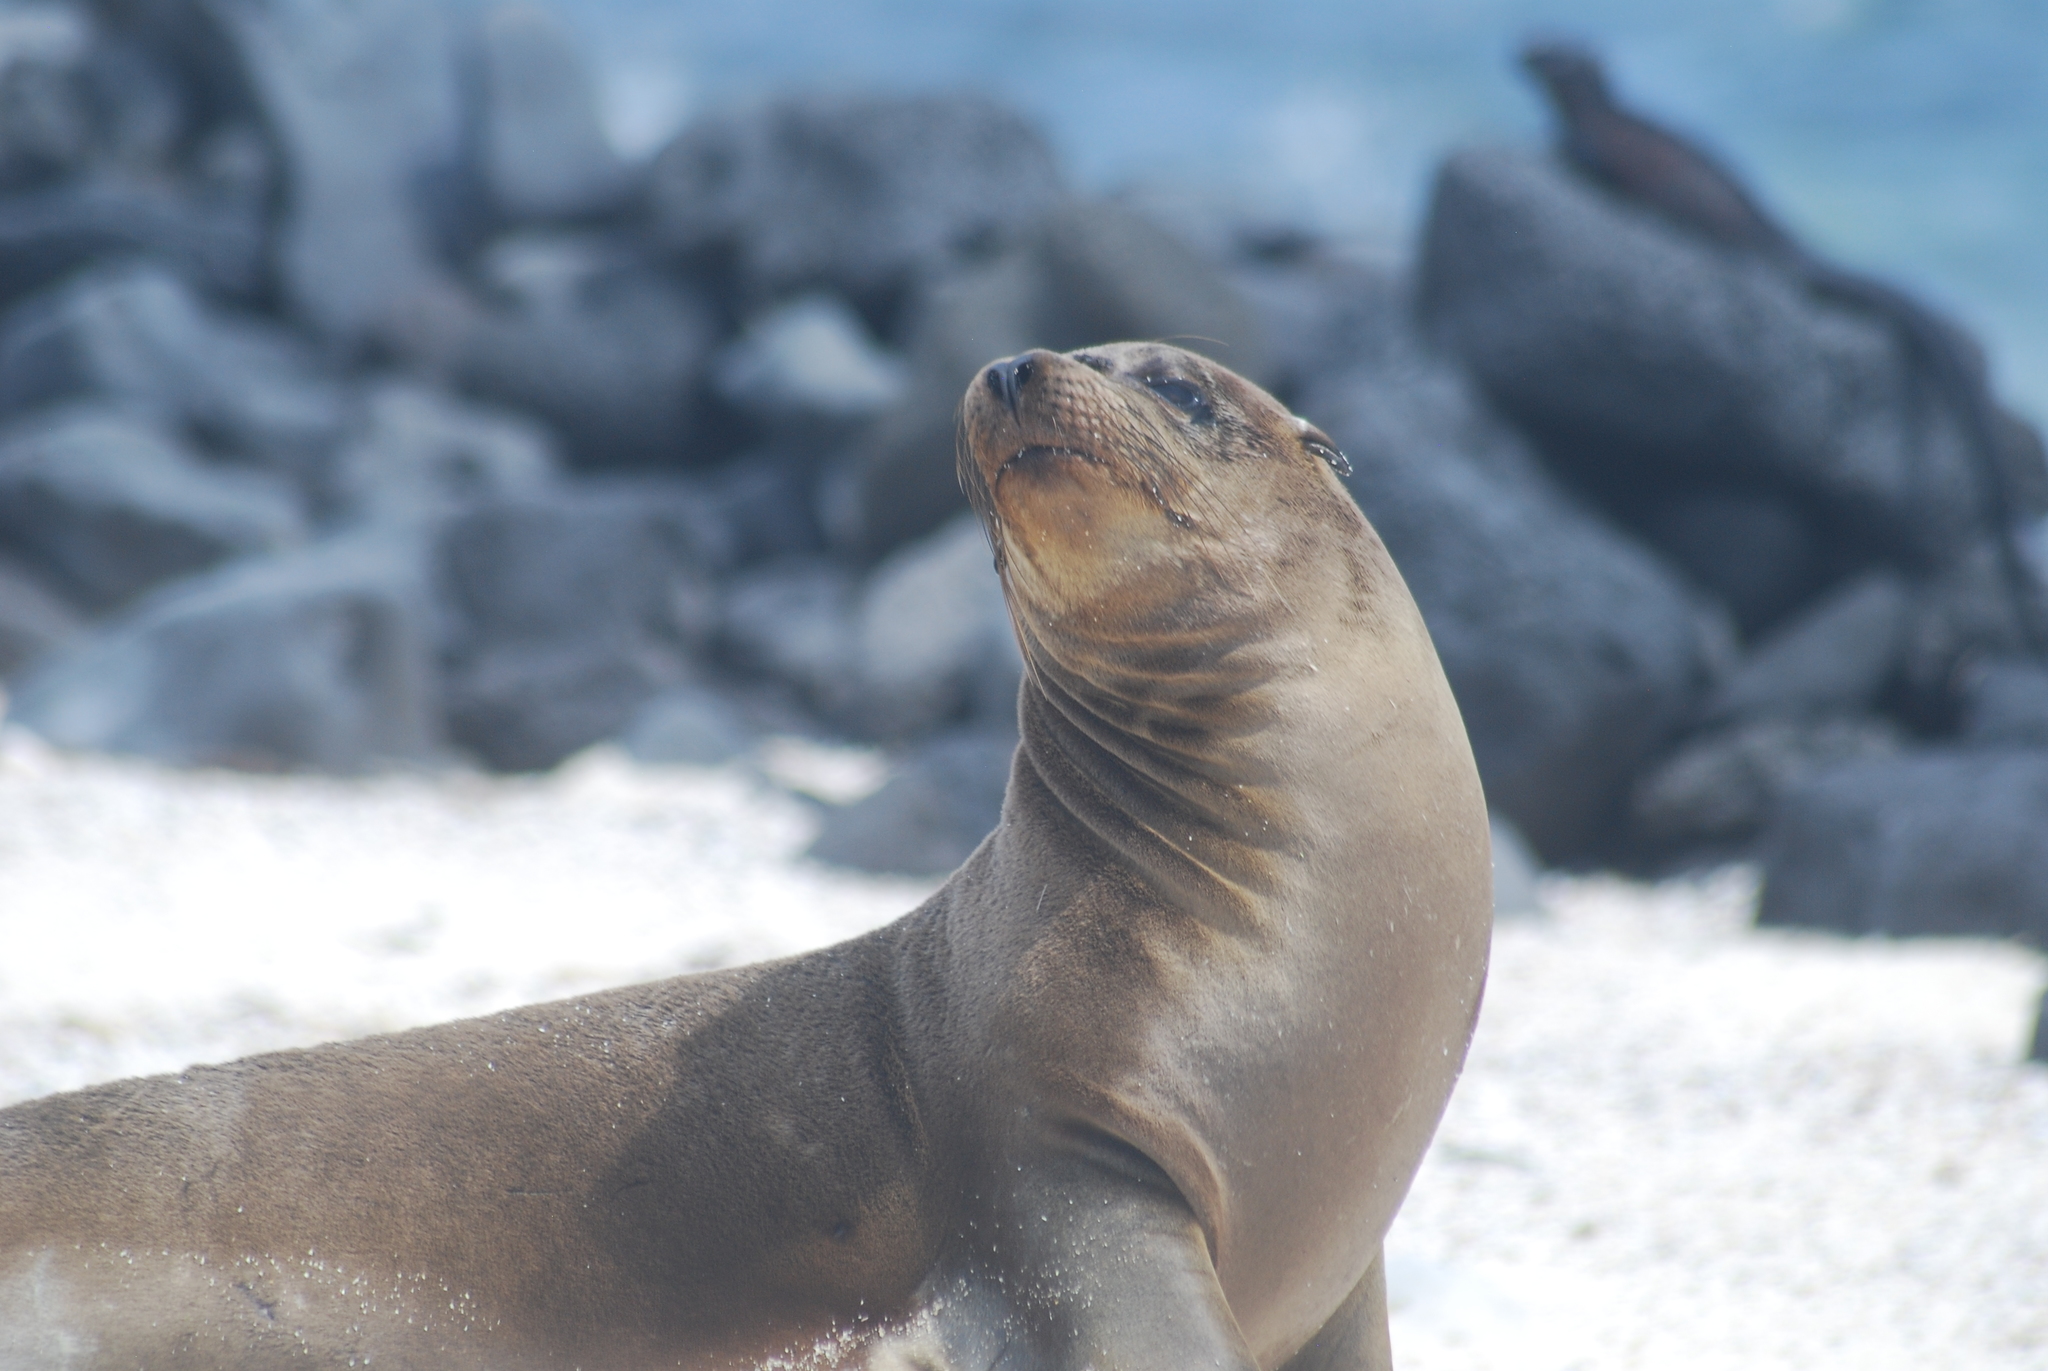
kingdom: Animalia
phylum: Chordata
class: Mammalia
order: Carnivora
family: Otariidae
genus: Zalophus
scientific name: Zalophus wollebaeki
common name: Galapagos sea lion
